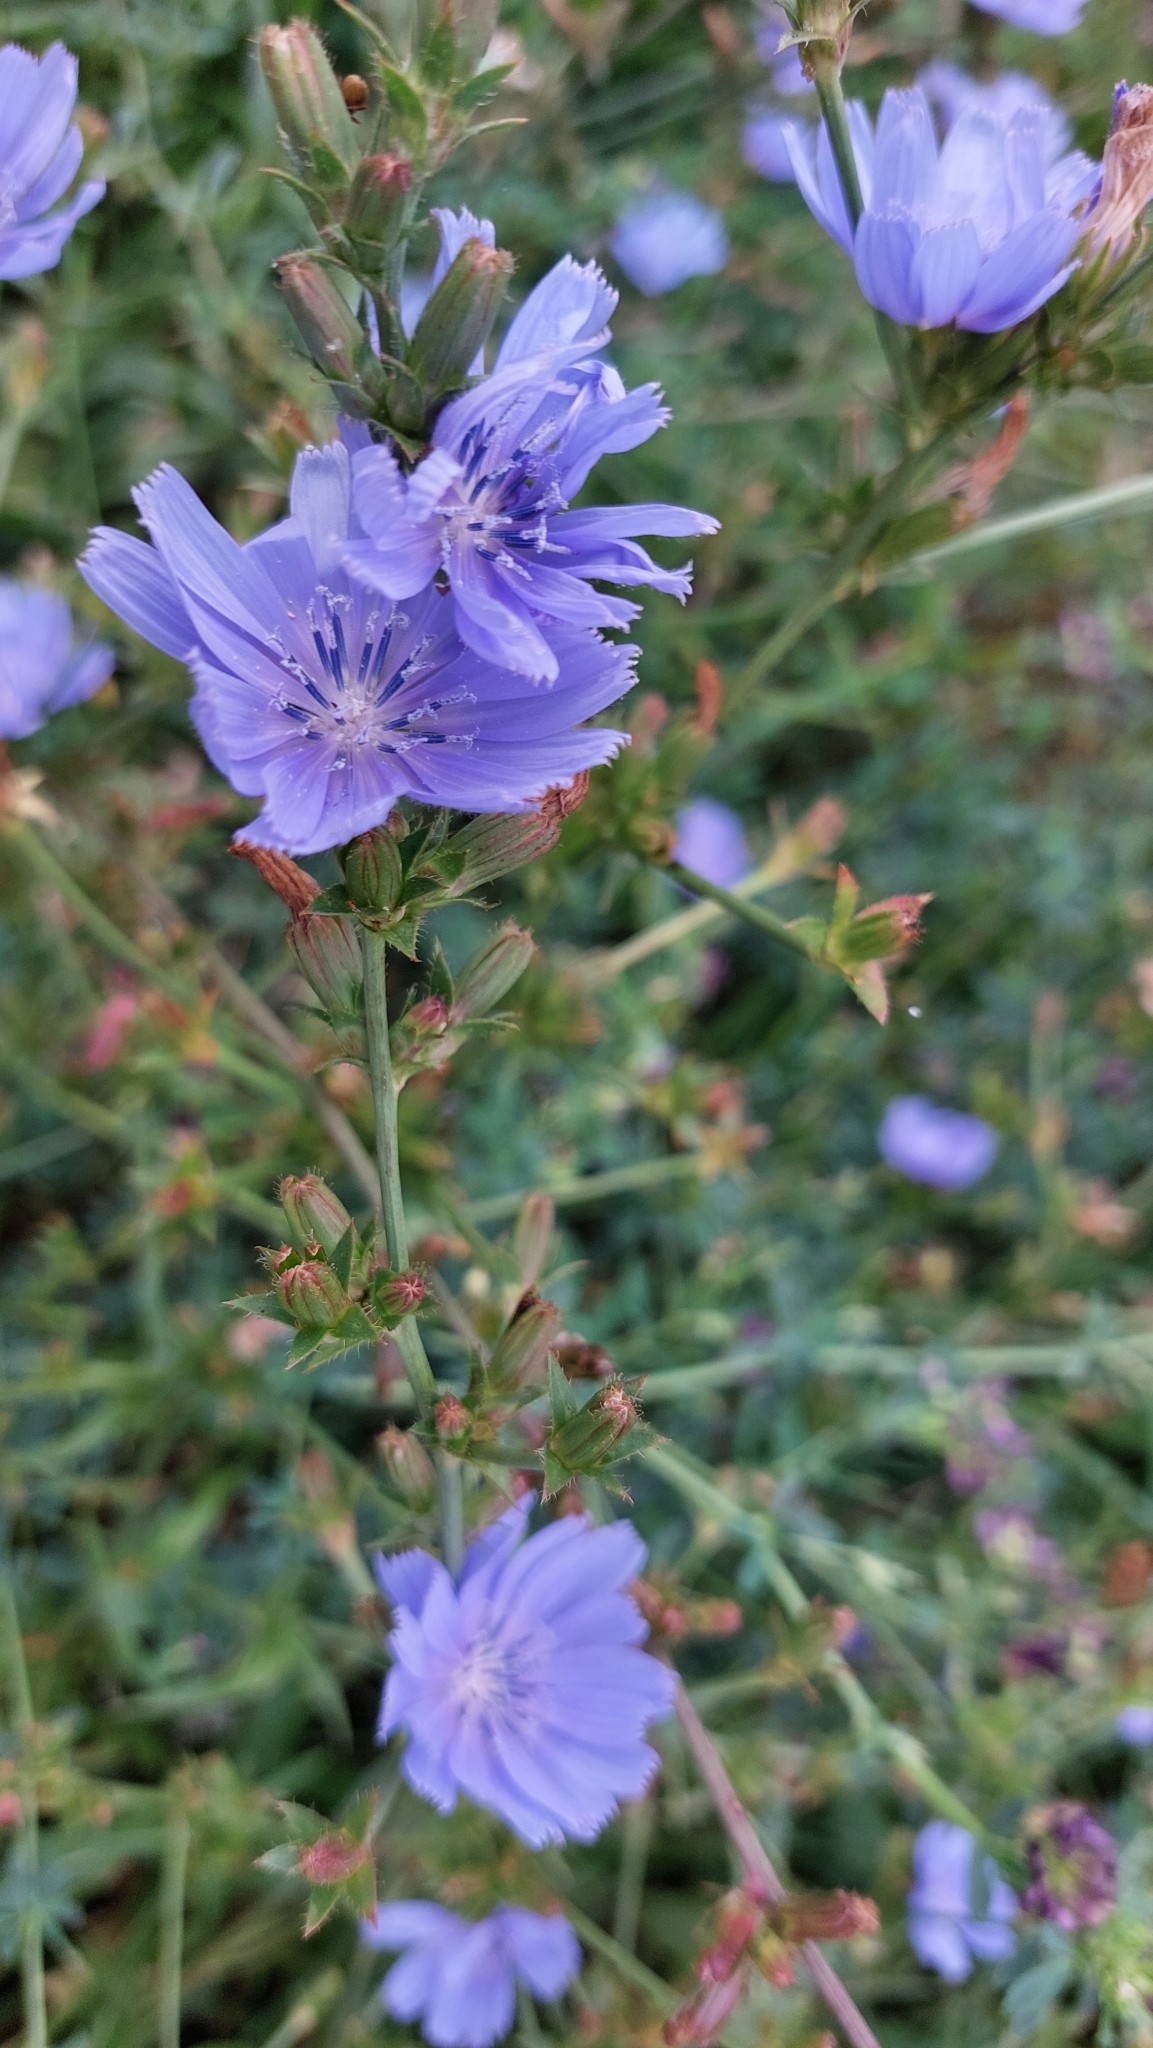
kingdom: Plantae
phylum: Tracheophyta
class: Magnoliopsida
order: Asterales
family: Asteraceae
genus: Cichorium
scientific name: Cichorium intybus
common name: Chicory
